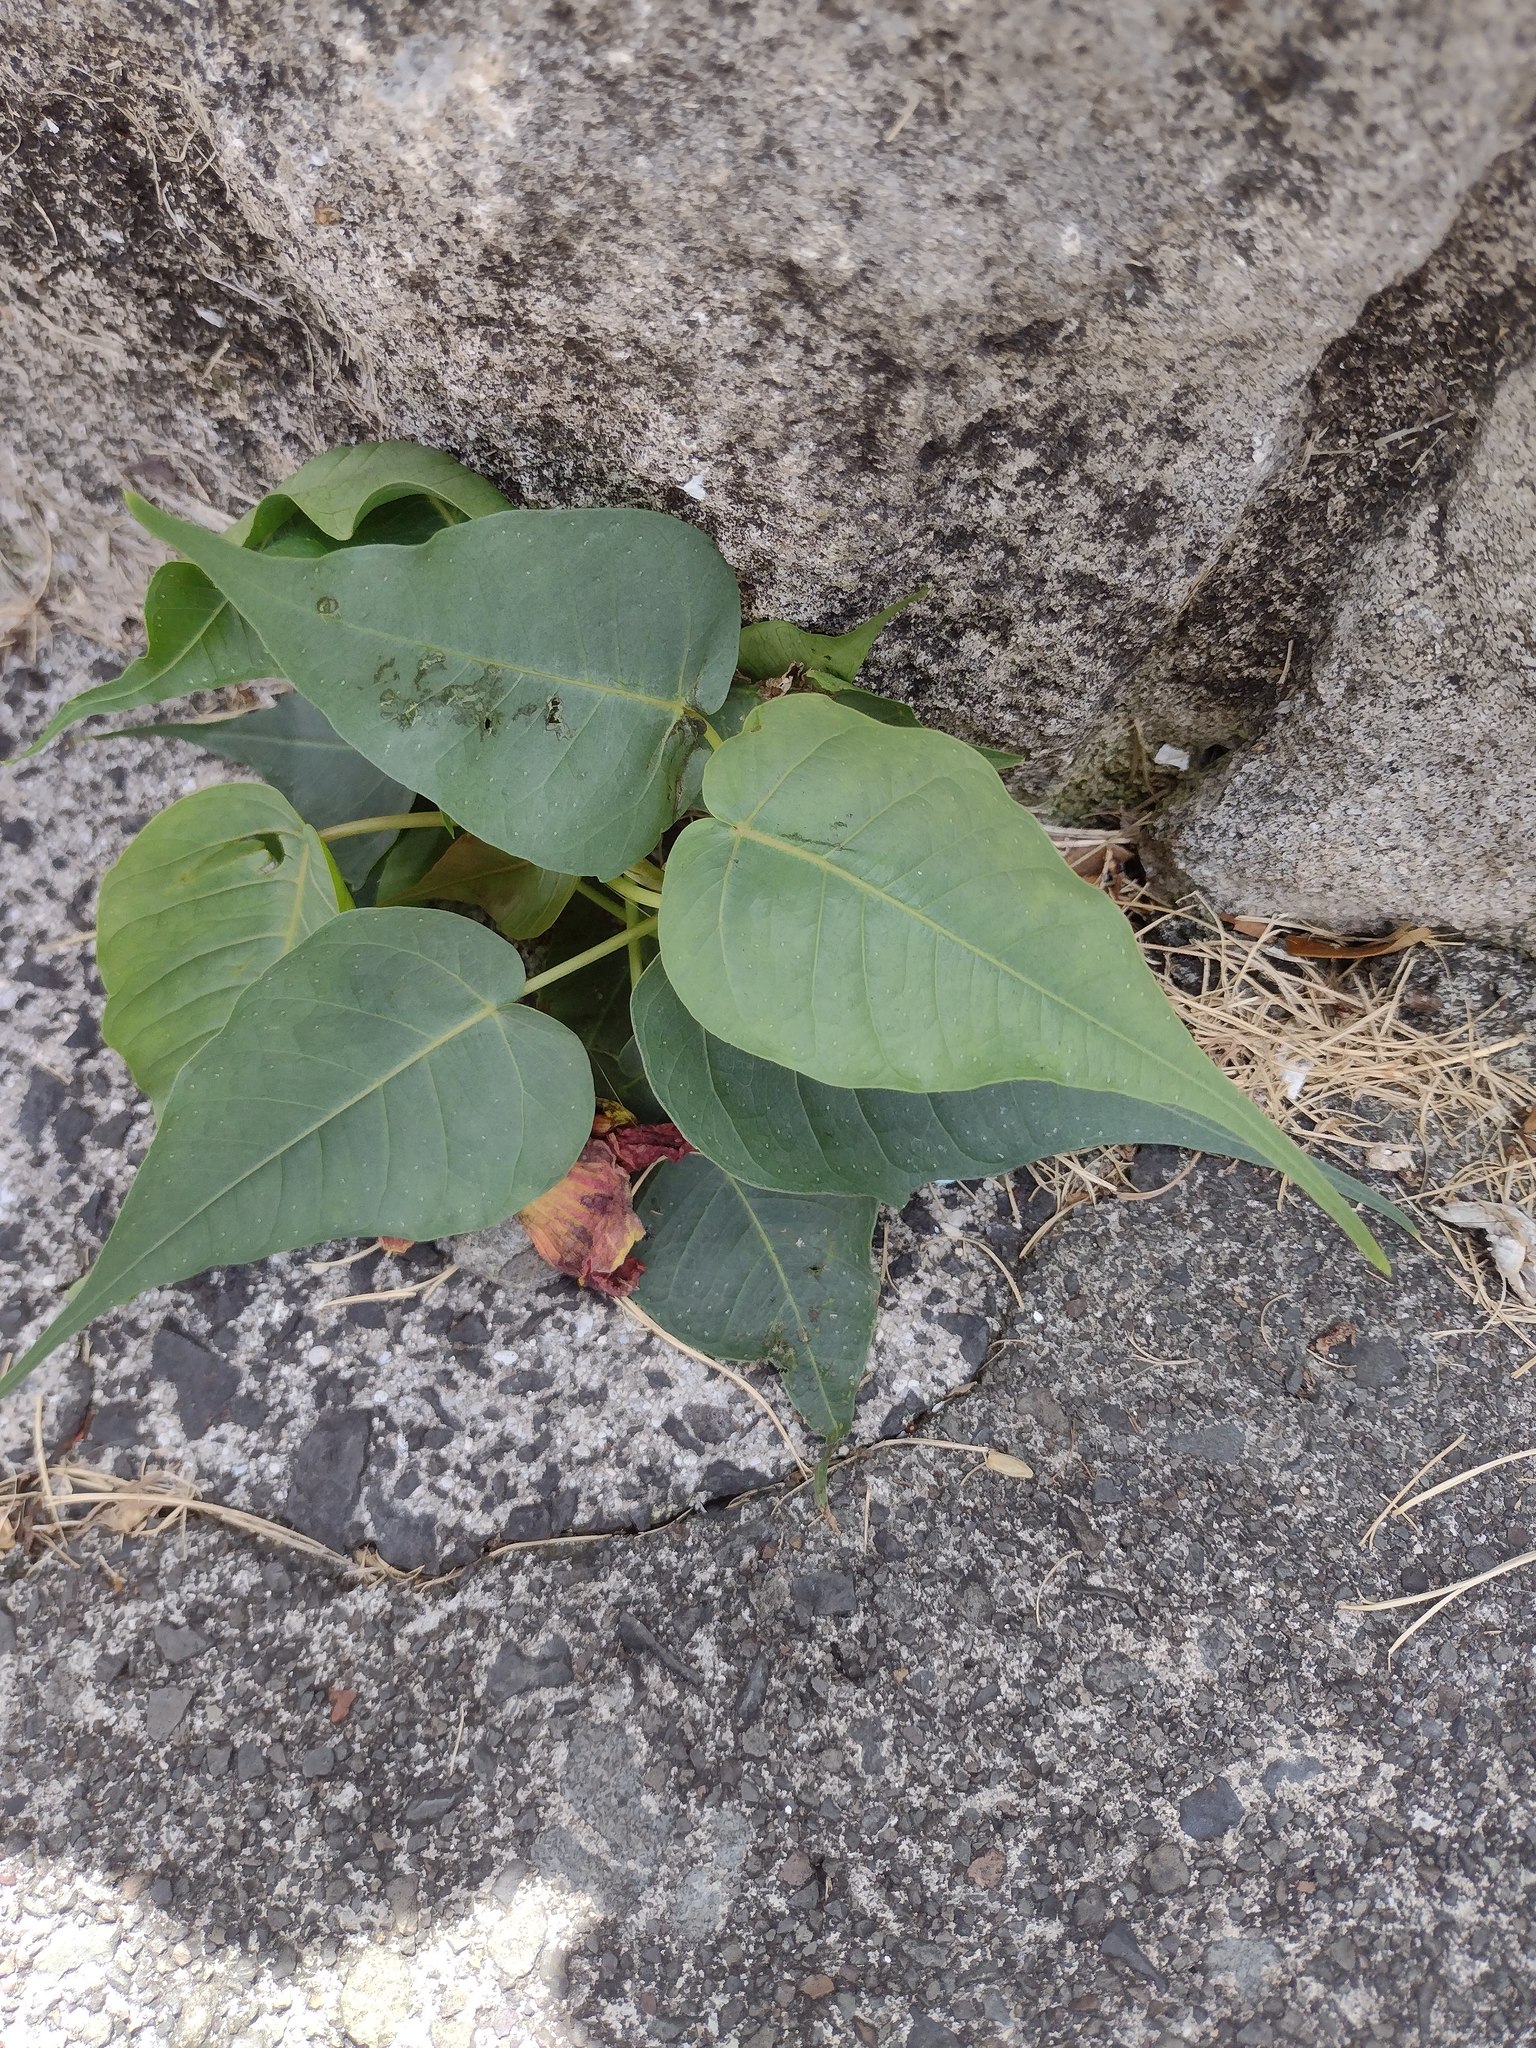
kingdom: Plantae
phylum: Tracheophyta
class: Magnoliopsida
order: Rosales
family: Moraceae
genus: Ficus
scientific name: Ficus religiosa
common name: Bodhi tree
